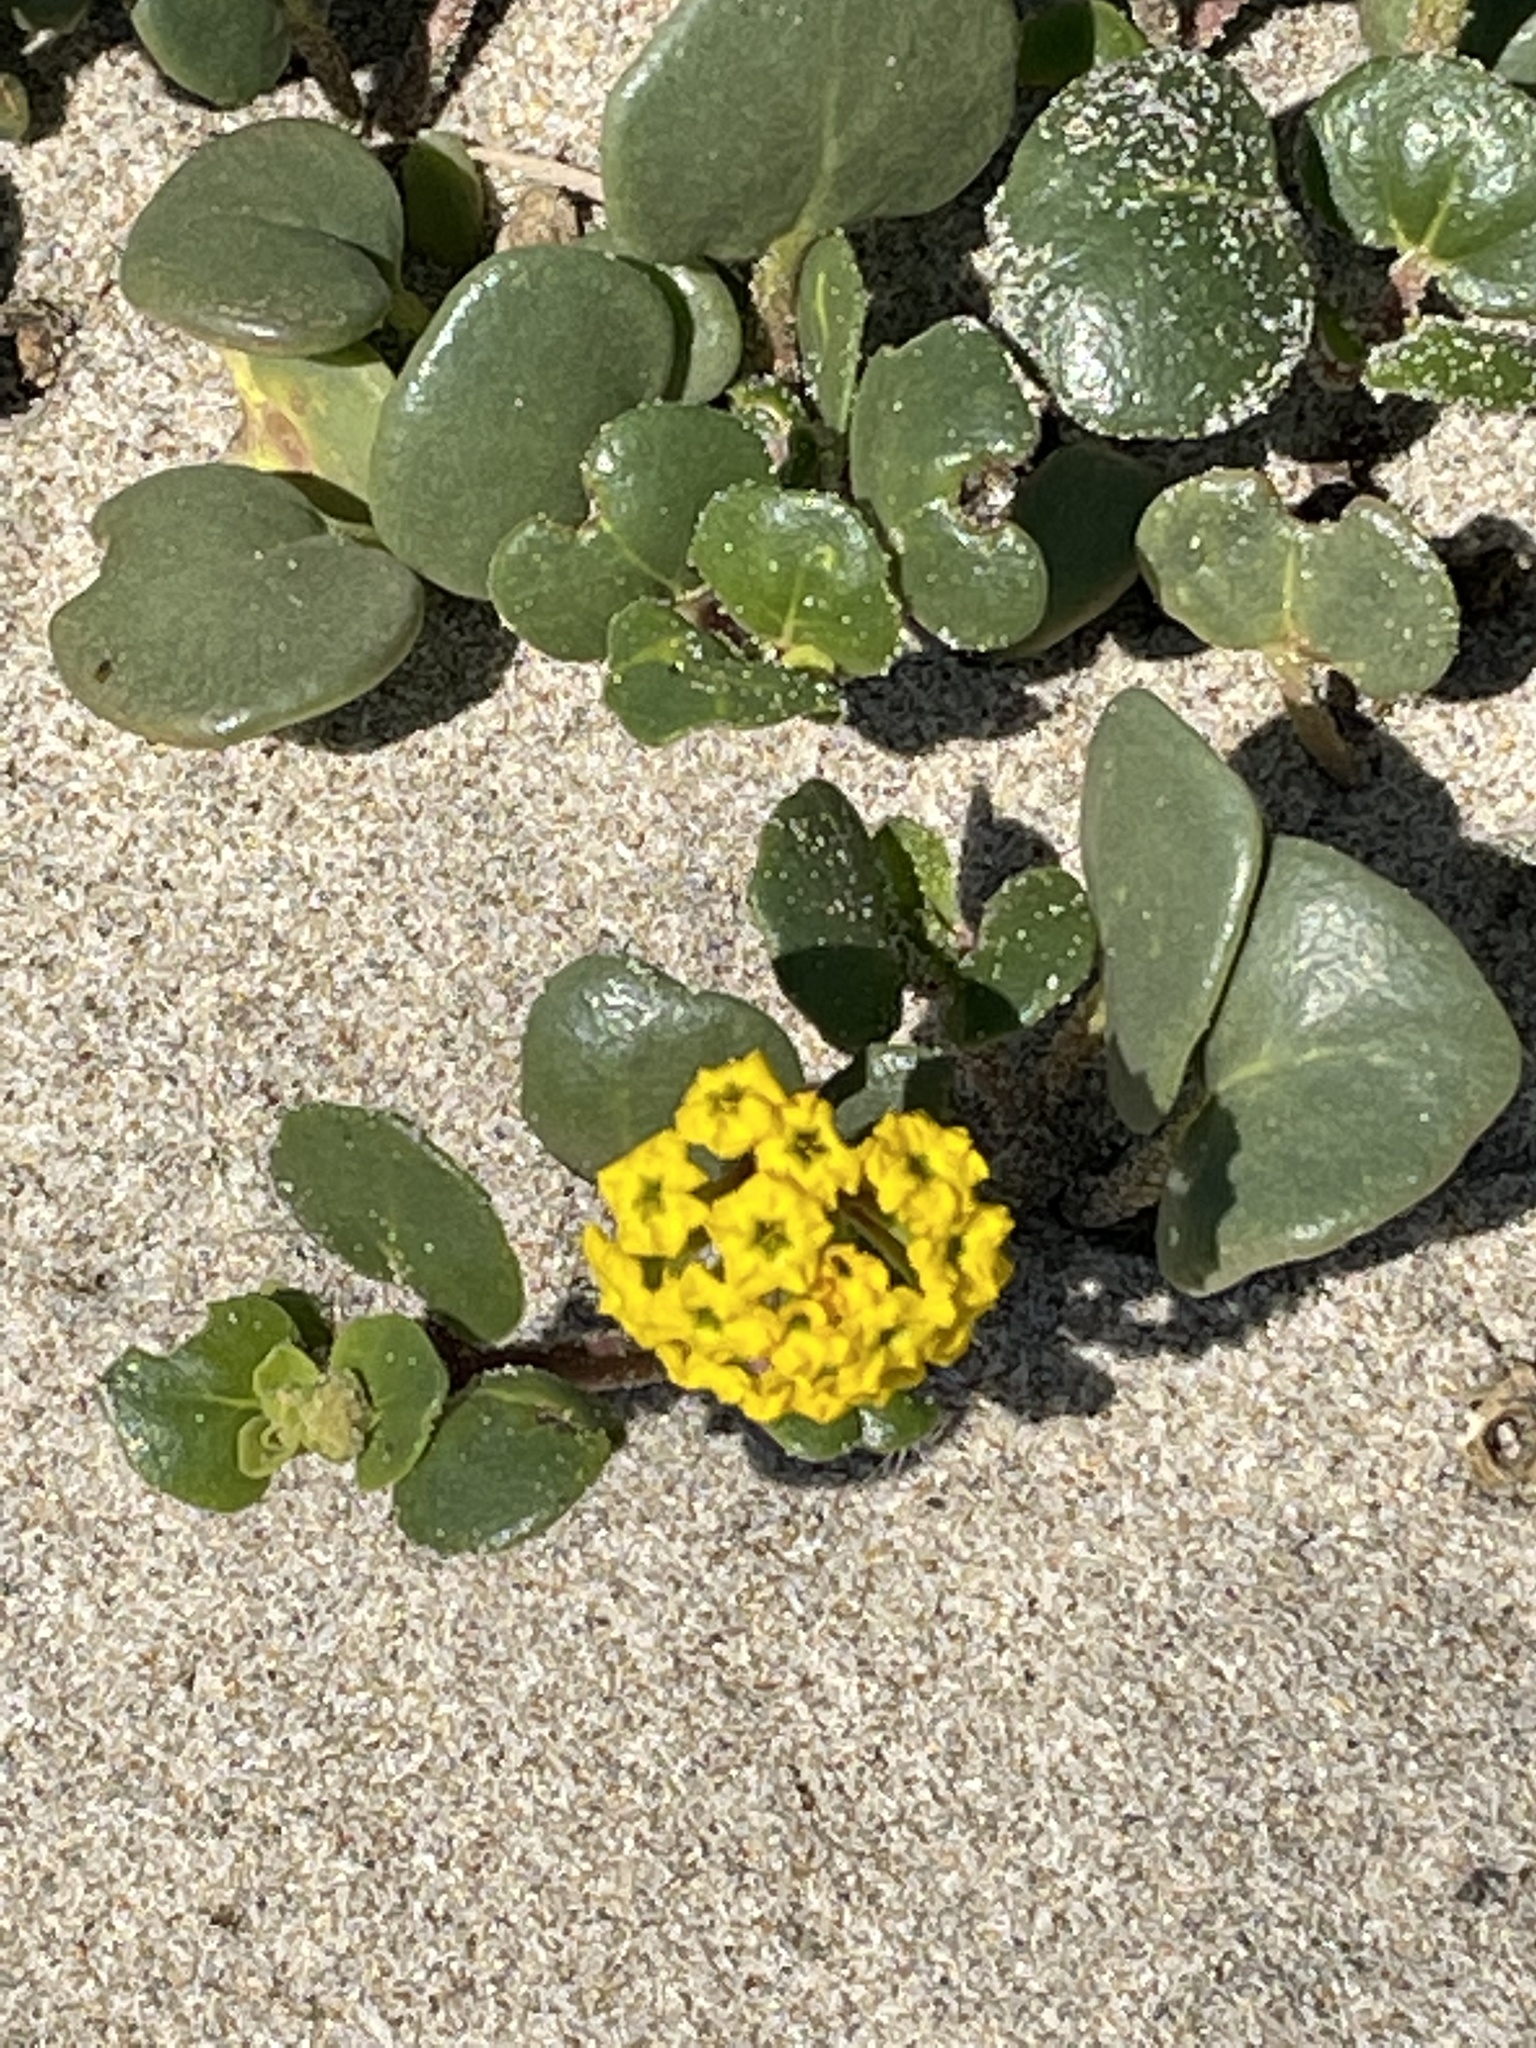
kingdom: Plantae
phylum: Tracheophyta
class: Magnoliopsida
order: Caryophyllales
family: Nyctaginaceae
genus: Abronia
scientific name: Abronia latifolia
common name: Yellow sand-verbena
